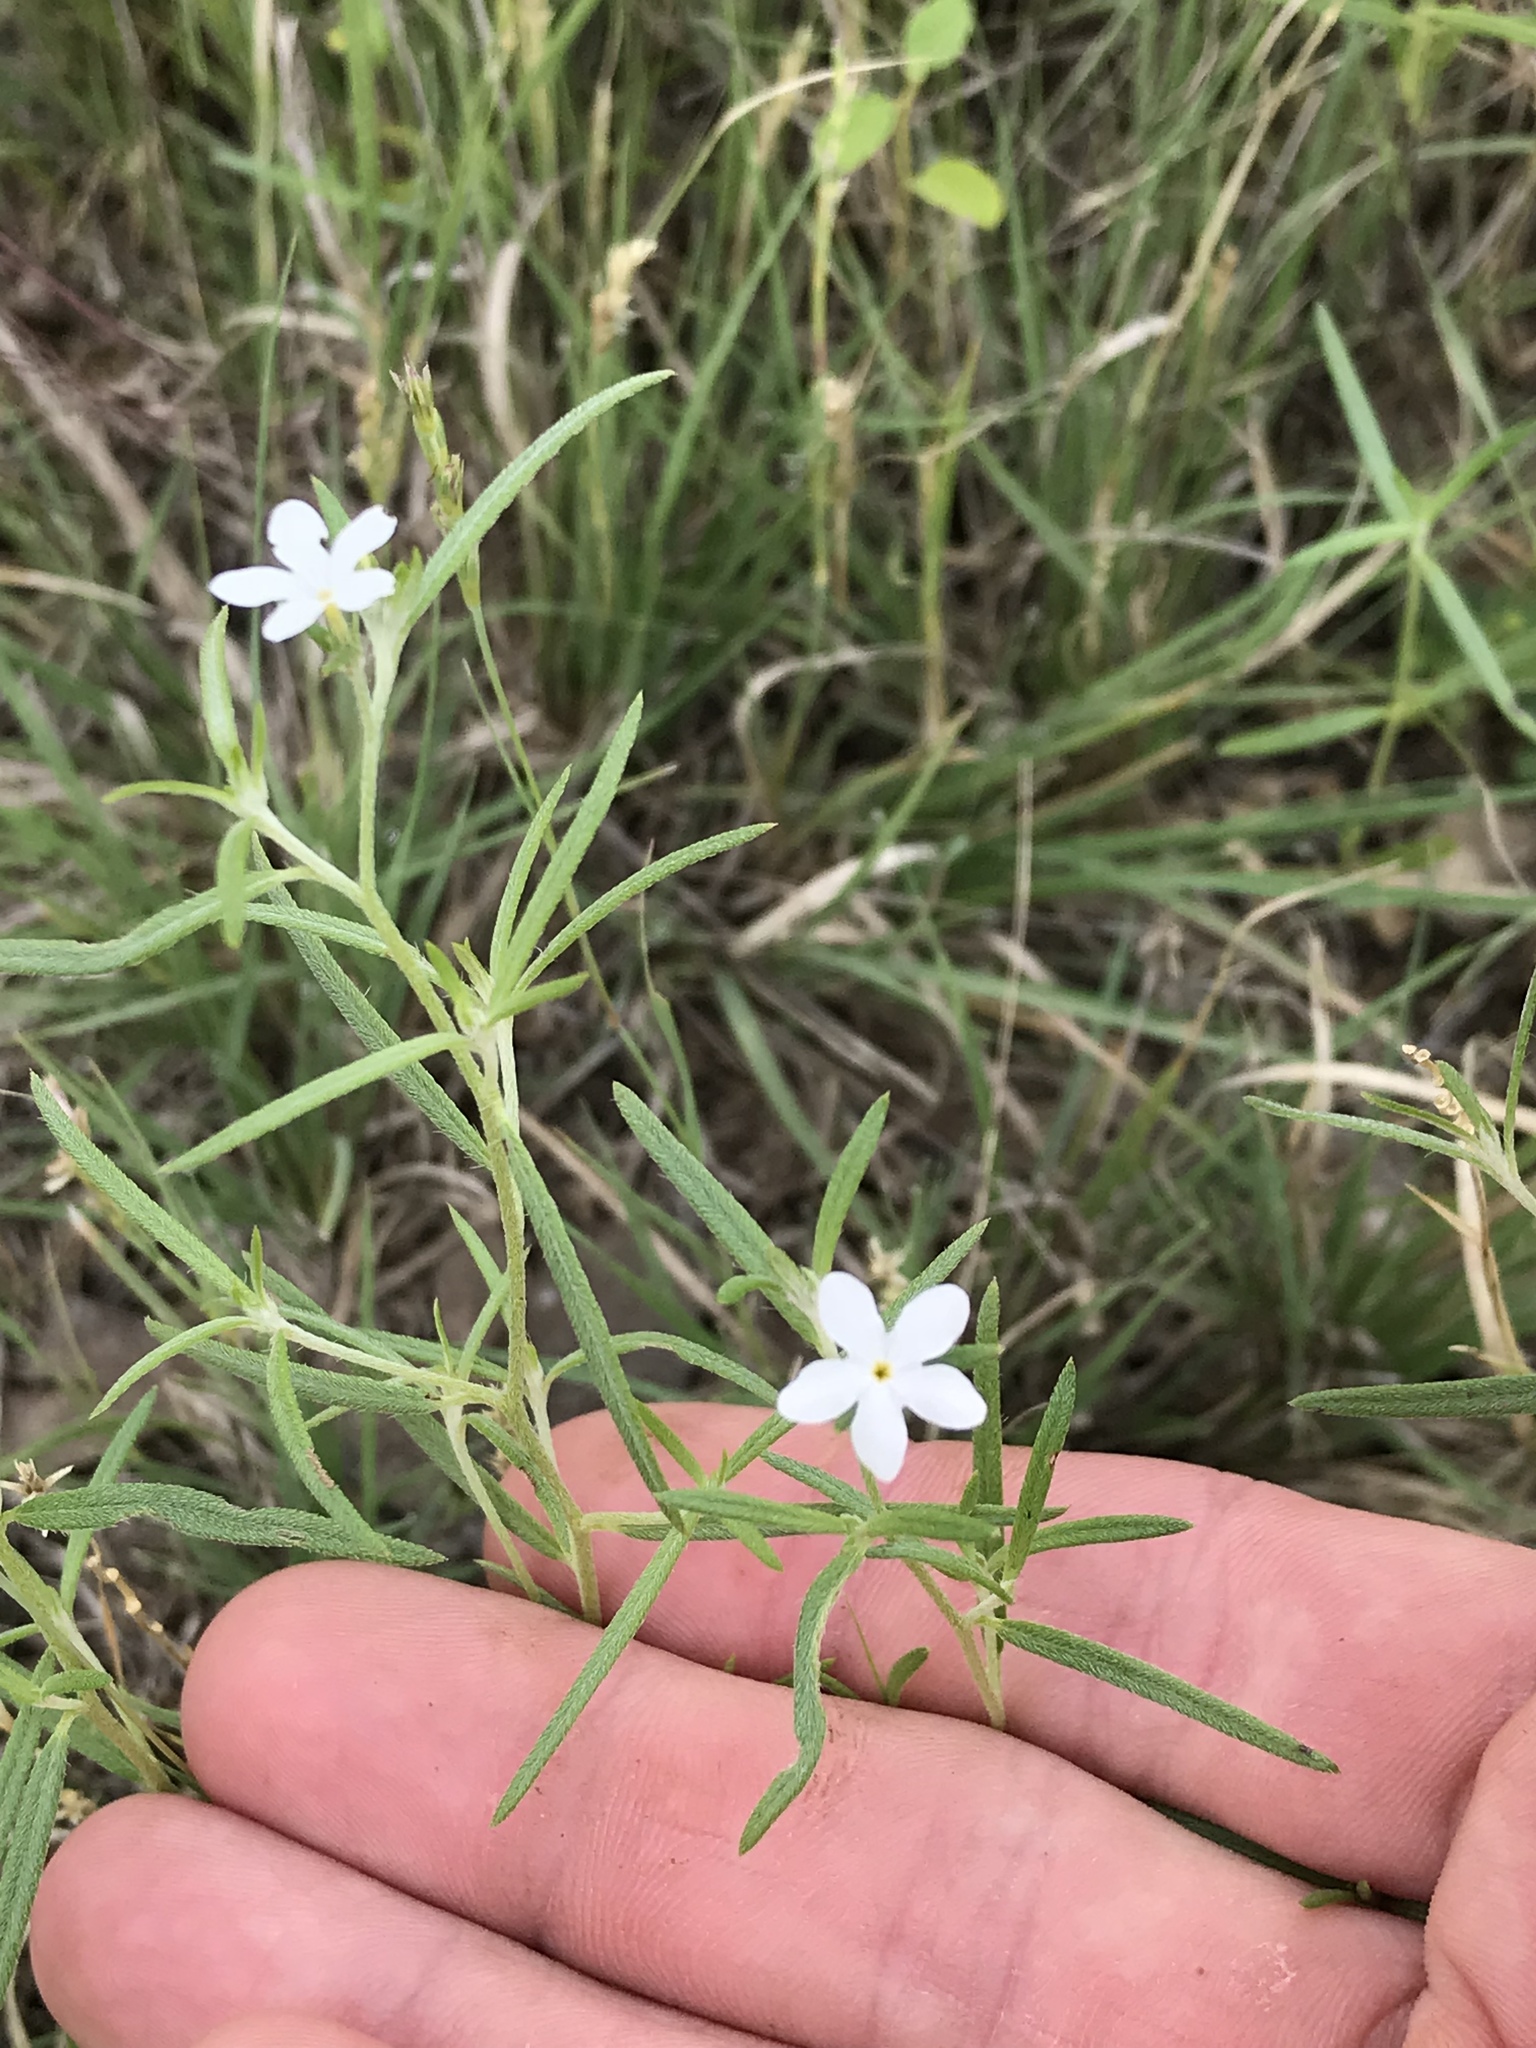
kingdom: Plantae
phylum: Tracheophyta
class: Magnoliopsida
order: Boraginales
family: Heliotropiaceae
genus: Euploca
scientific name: Euploca tenella
